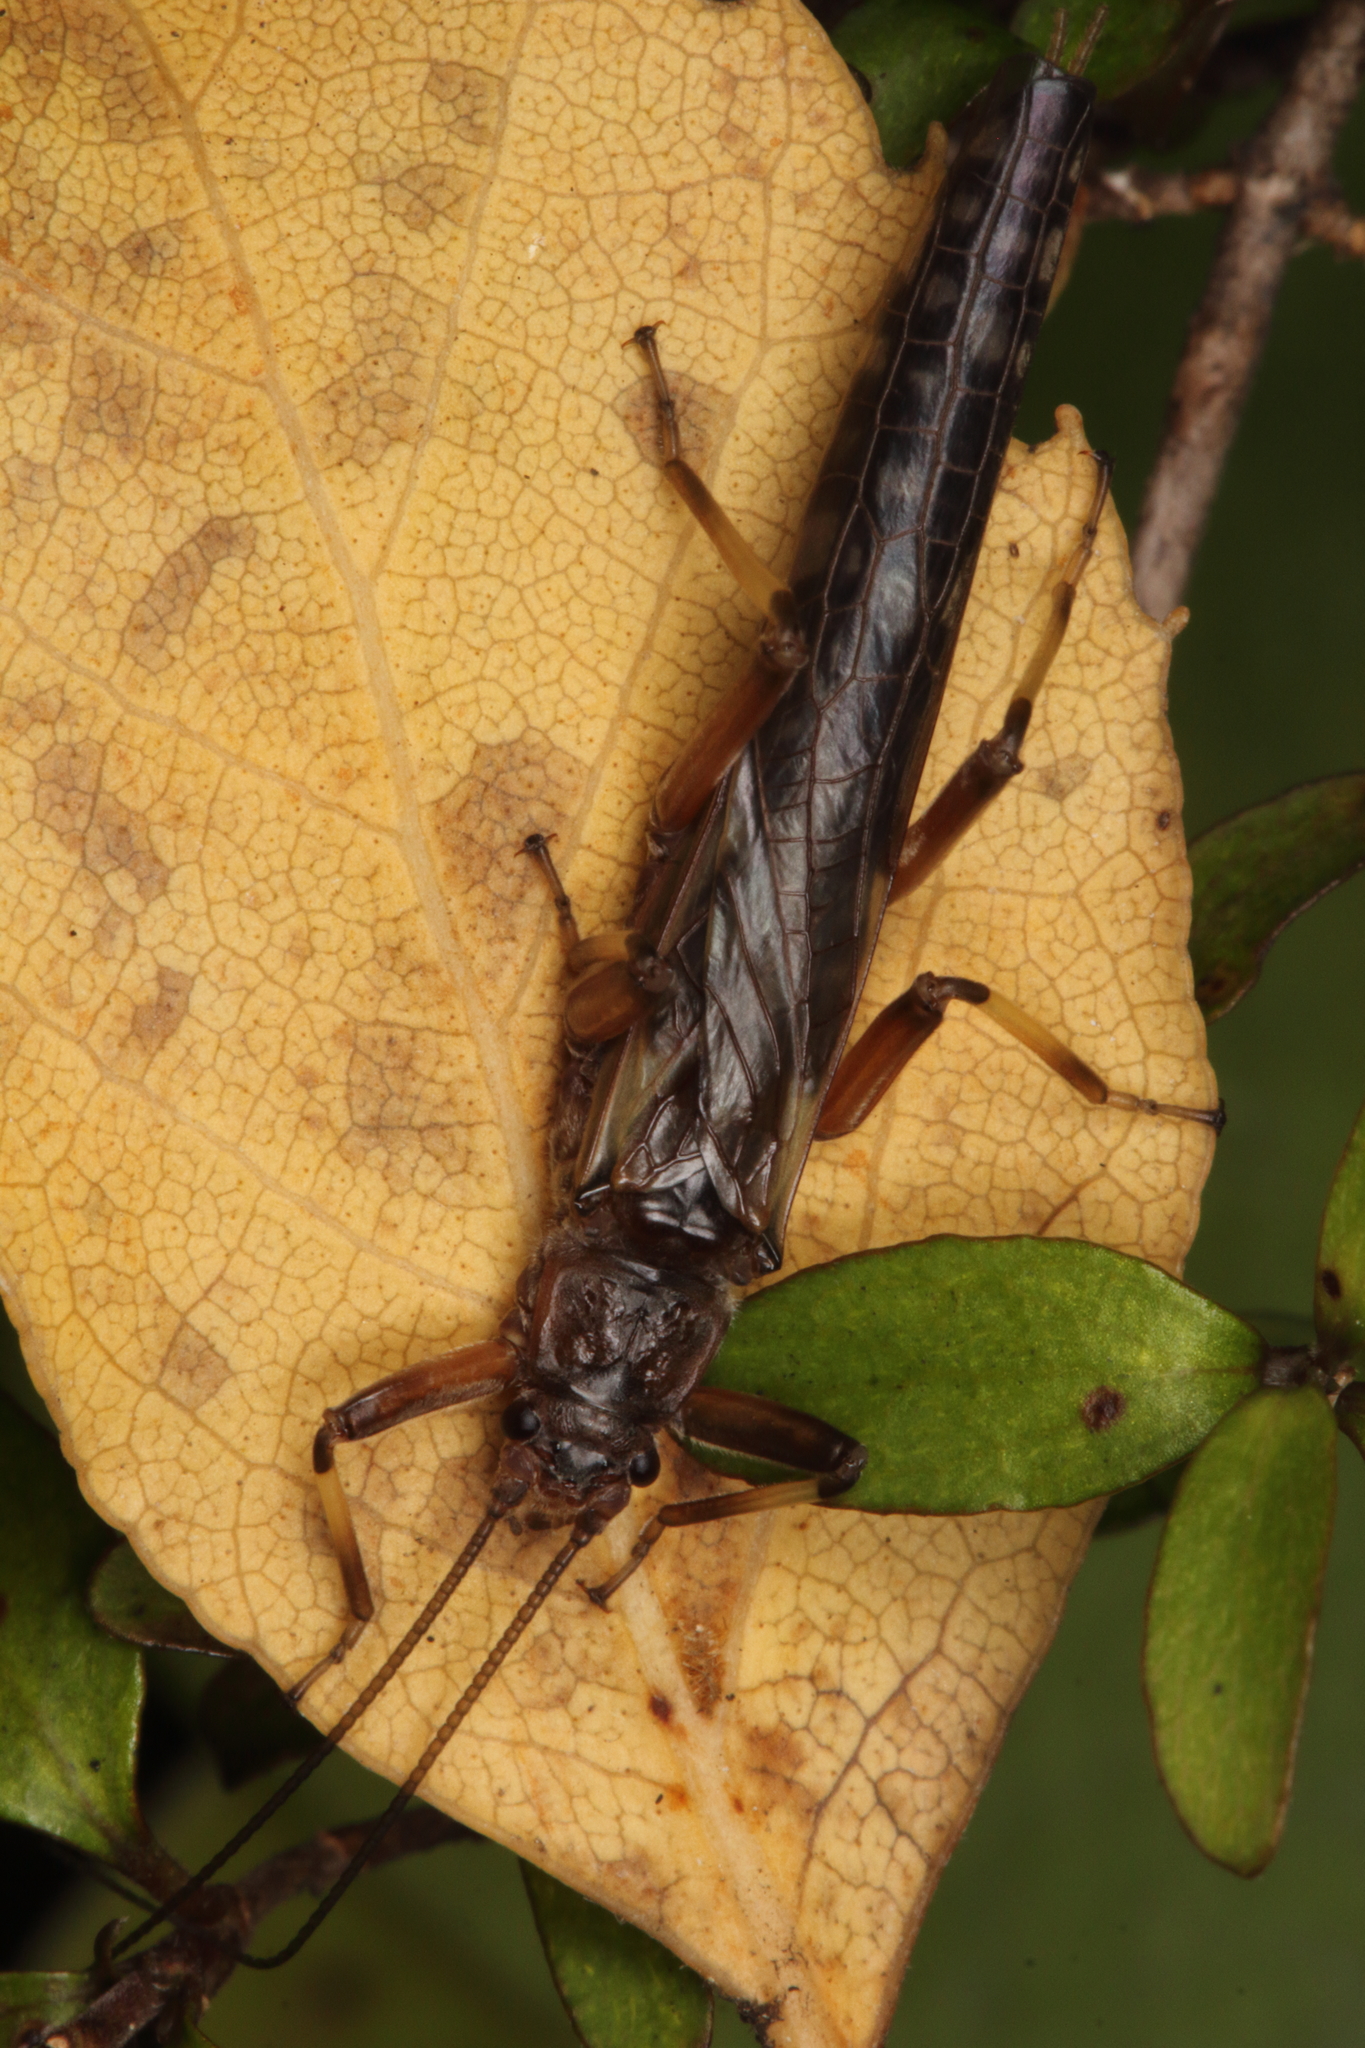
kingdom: Animalia
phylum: Arthropoda
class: Insecta
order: Plecoptera
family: Gripopterygidae
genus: Zelandoperla
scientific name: Zelandoperla fenestrata
